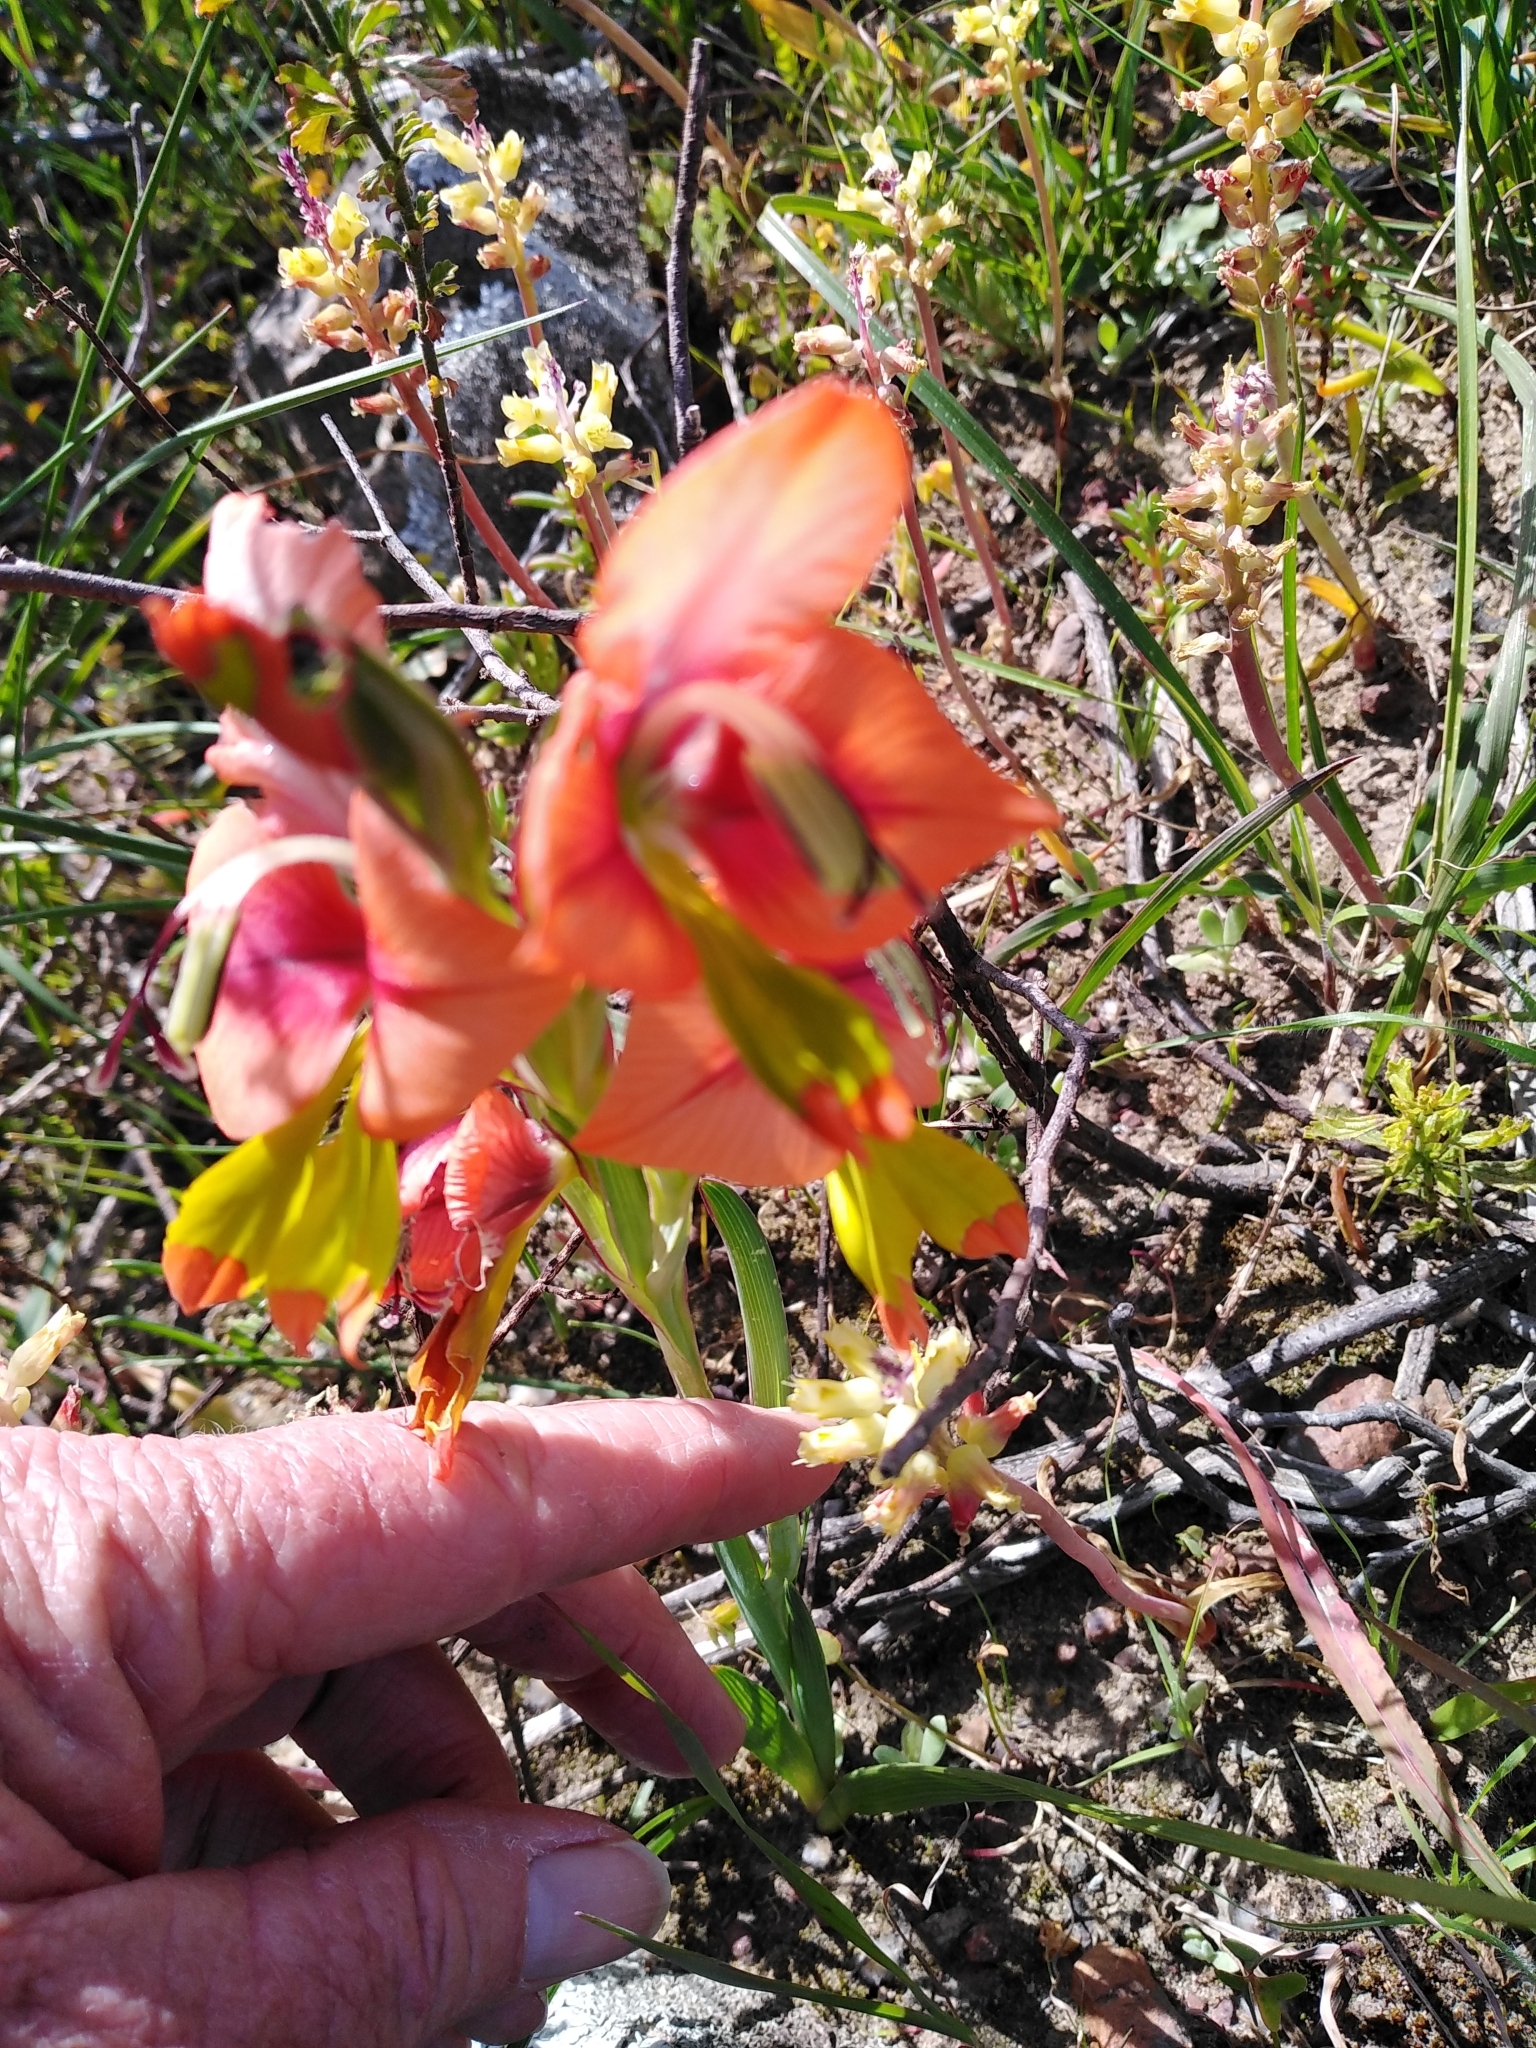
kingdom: Plantae
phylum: Tracheophyta
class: Liliopsida
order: Asparagales
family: Iridaceae
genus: Gladiolus
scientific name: Gladiolus alatus
